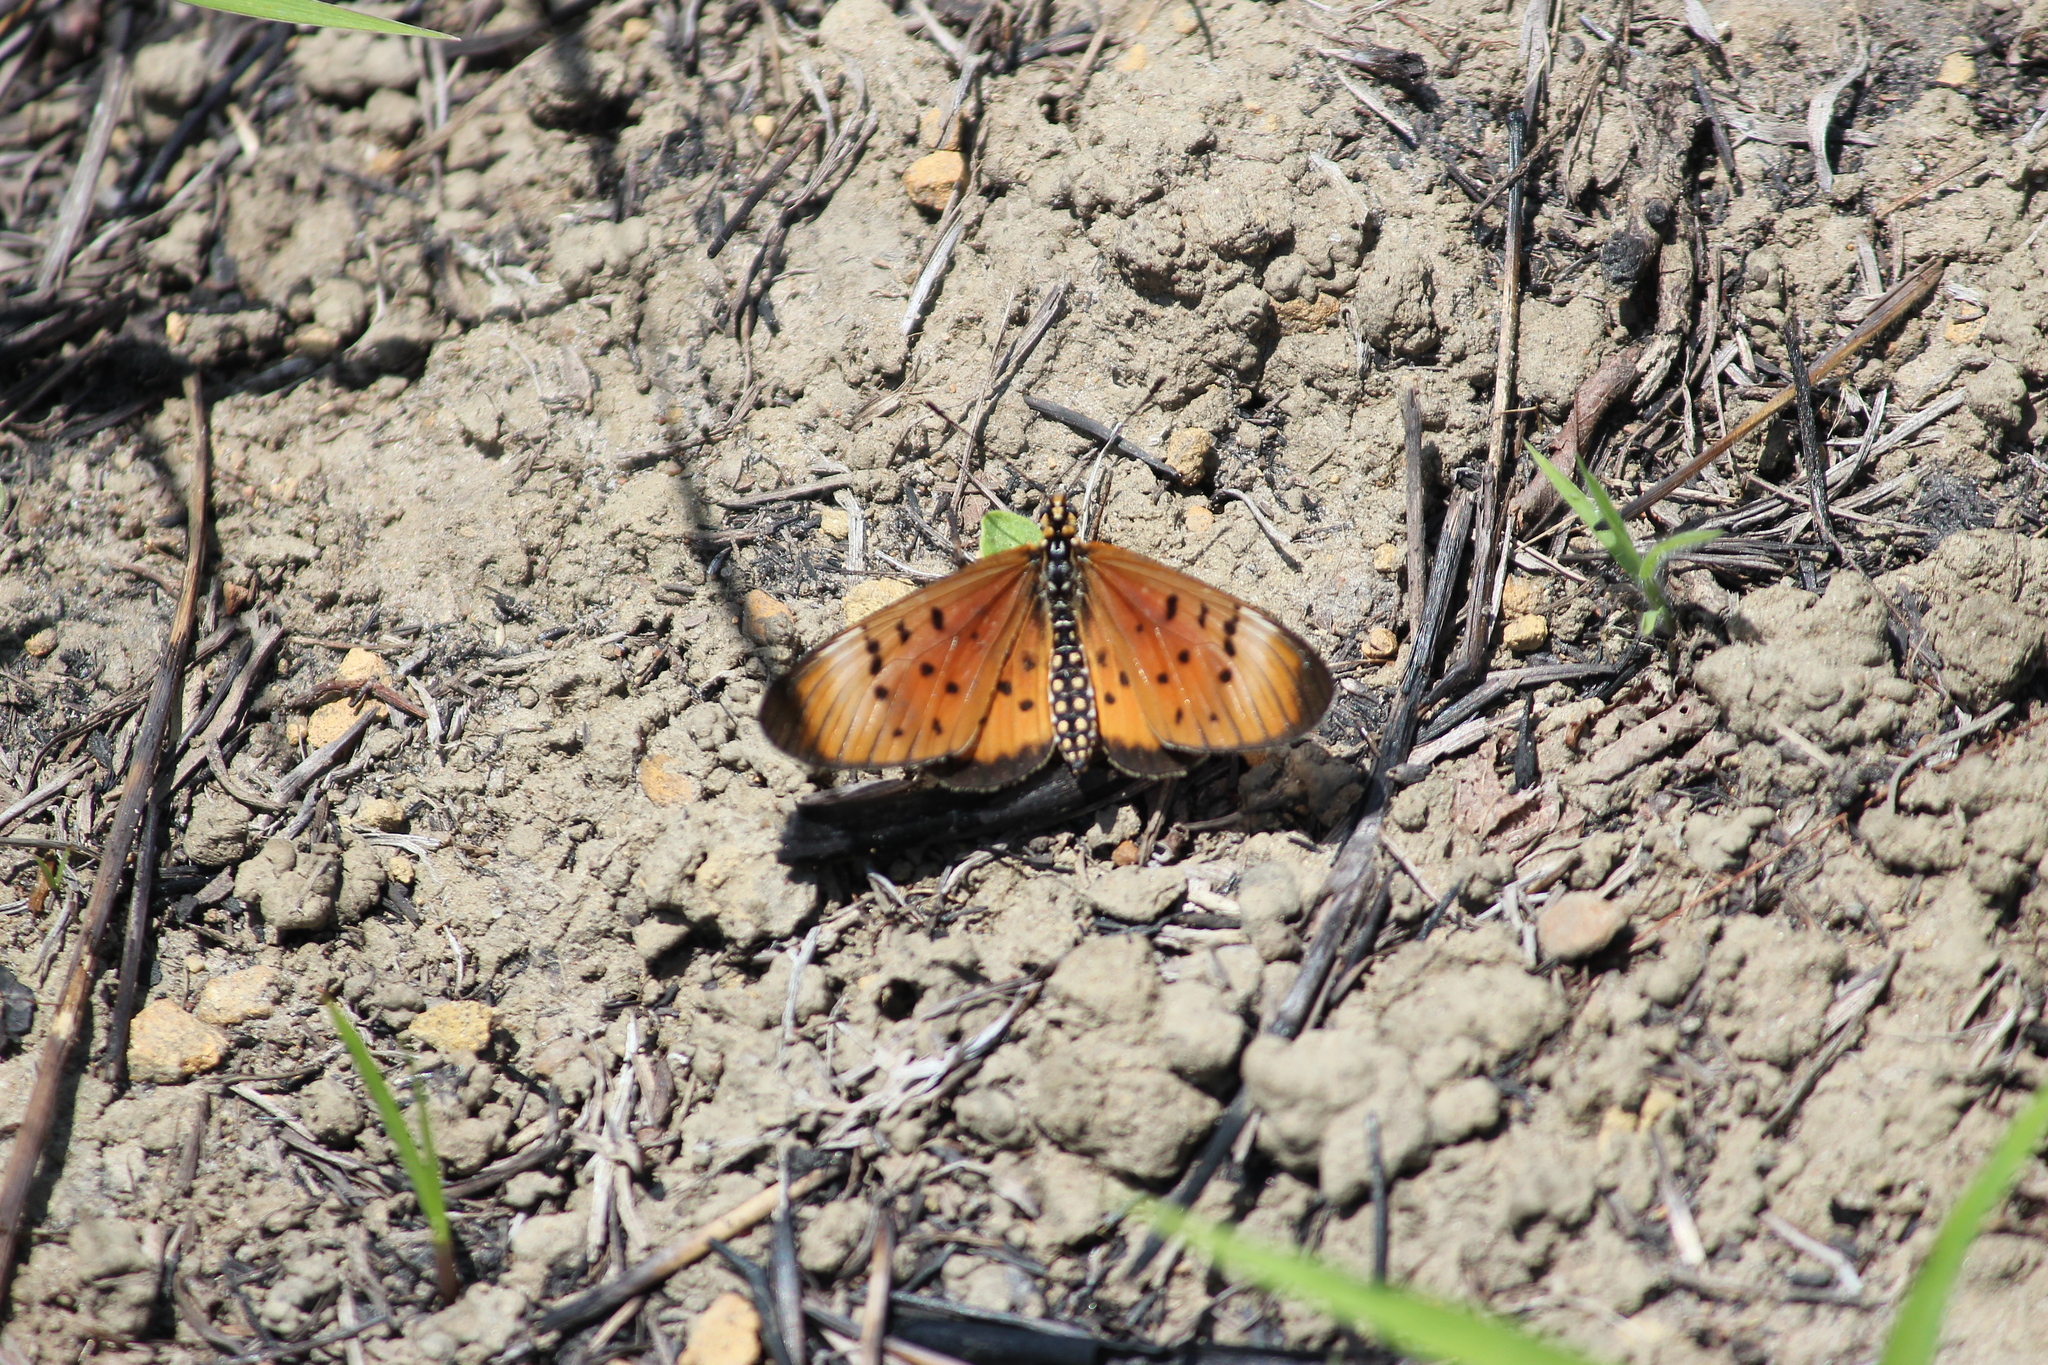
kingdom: Animalia
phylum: Arthropoda
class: Insecta
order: Lepidoptera
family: Nymphalidae
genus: Stephenia
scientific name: Stephenia
